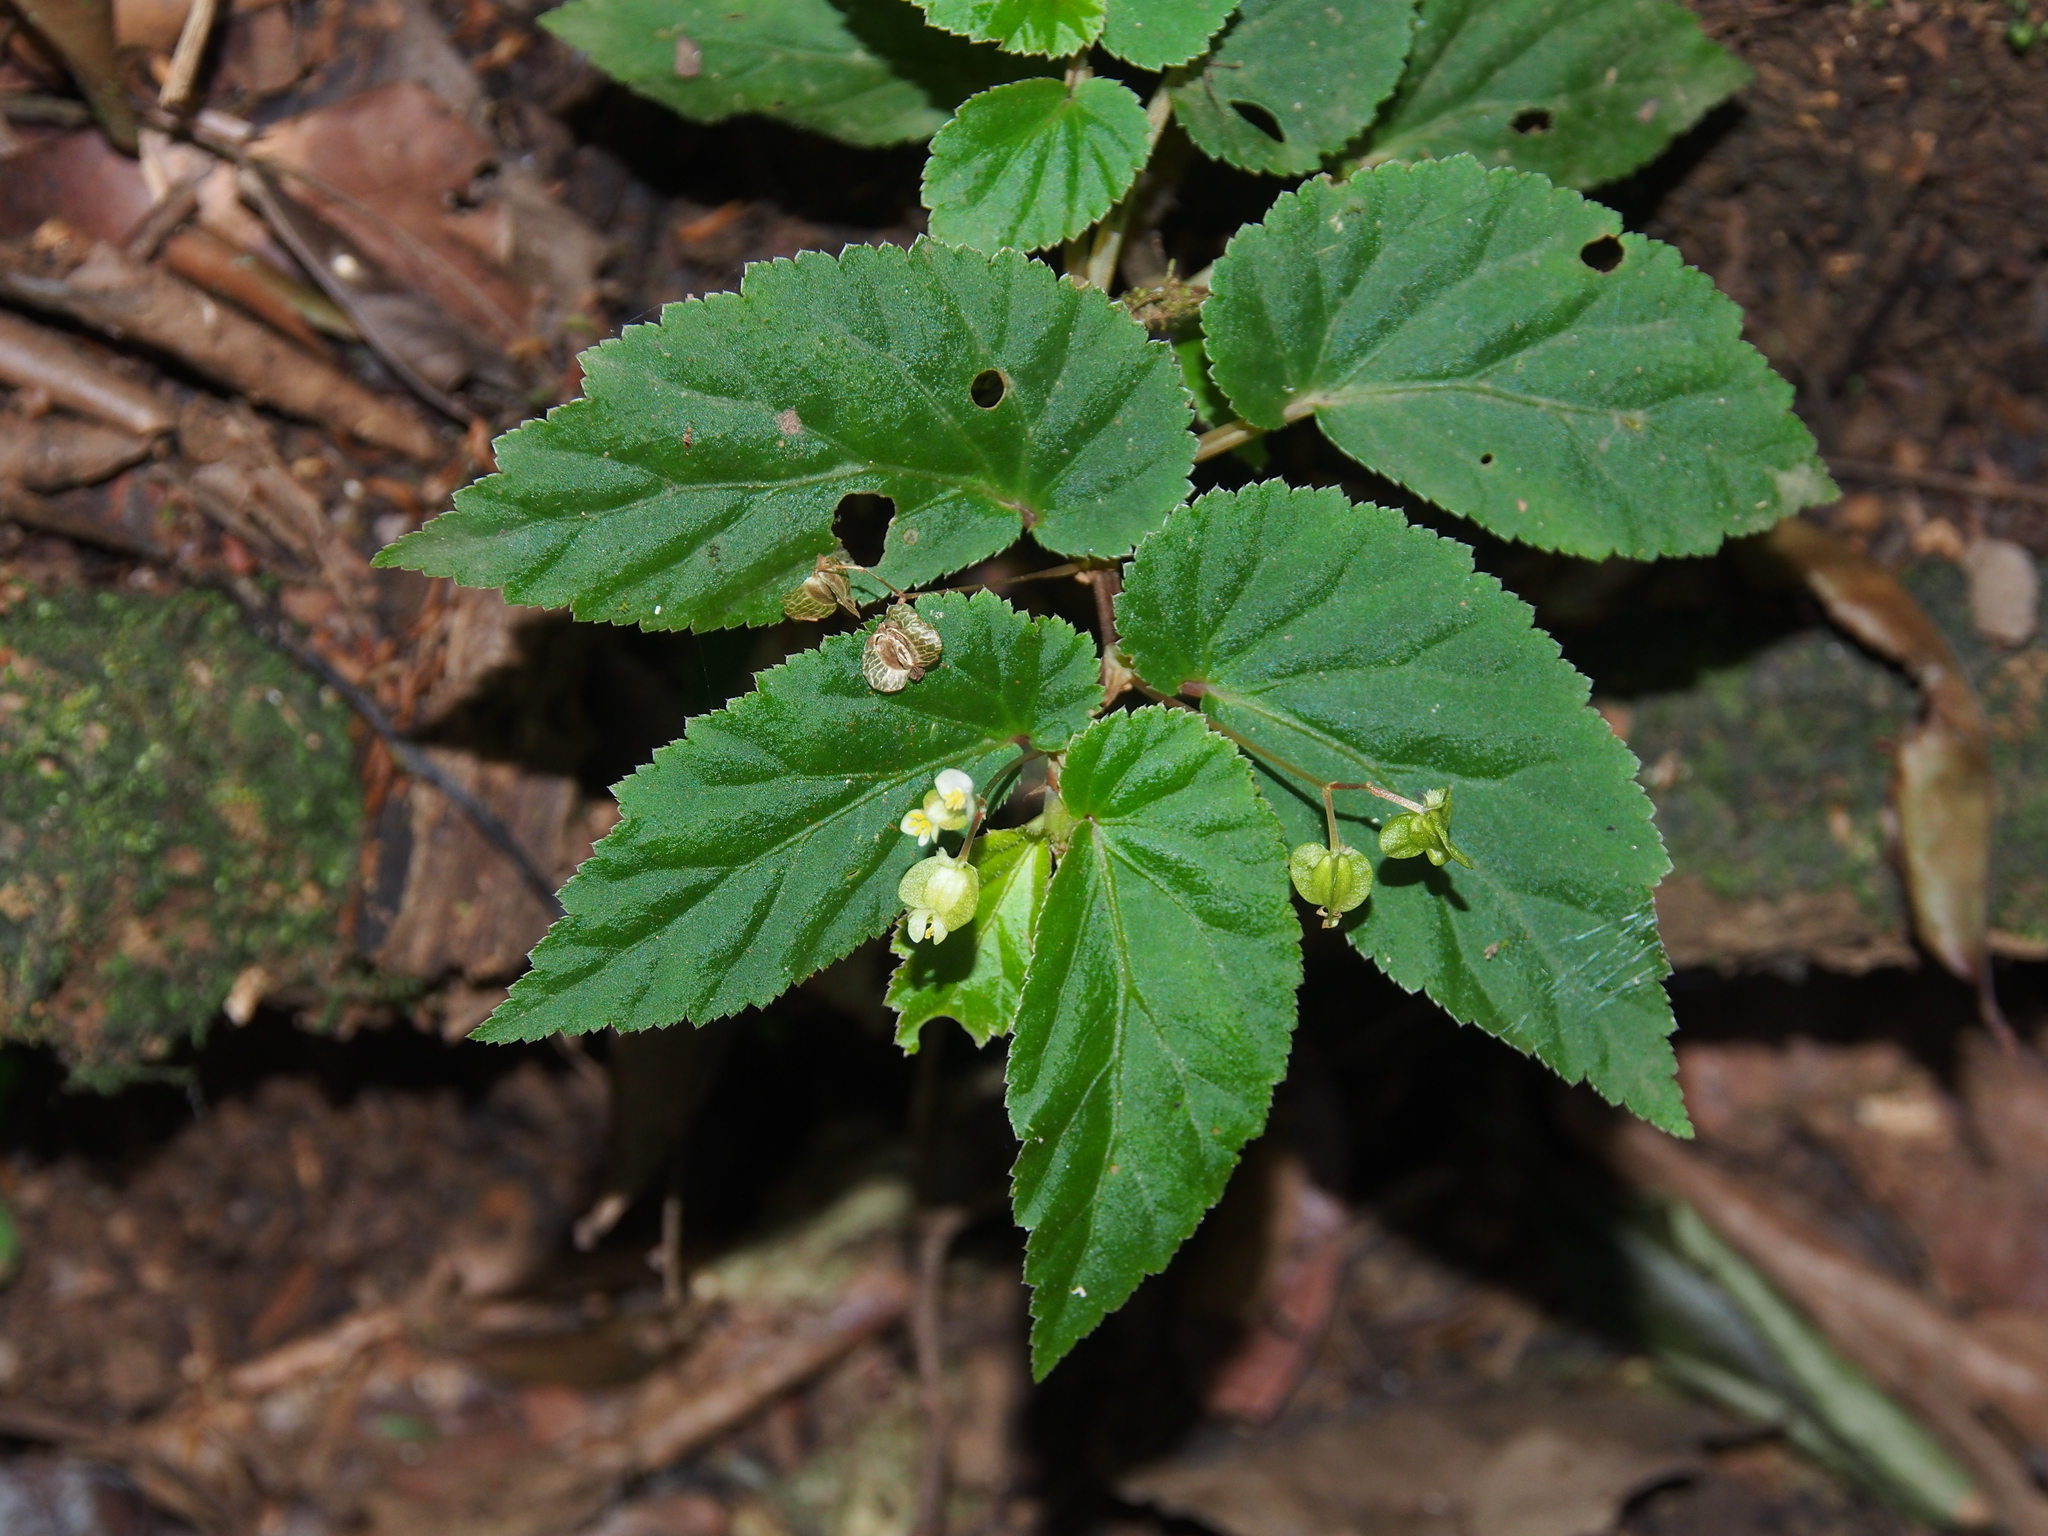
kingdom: Plantae
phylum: Tracheophyta
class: Magnoliopsida
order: Cucurbitales
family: Begoniaceae
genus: Begonia
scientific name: Begonia semiovata
